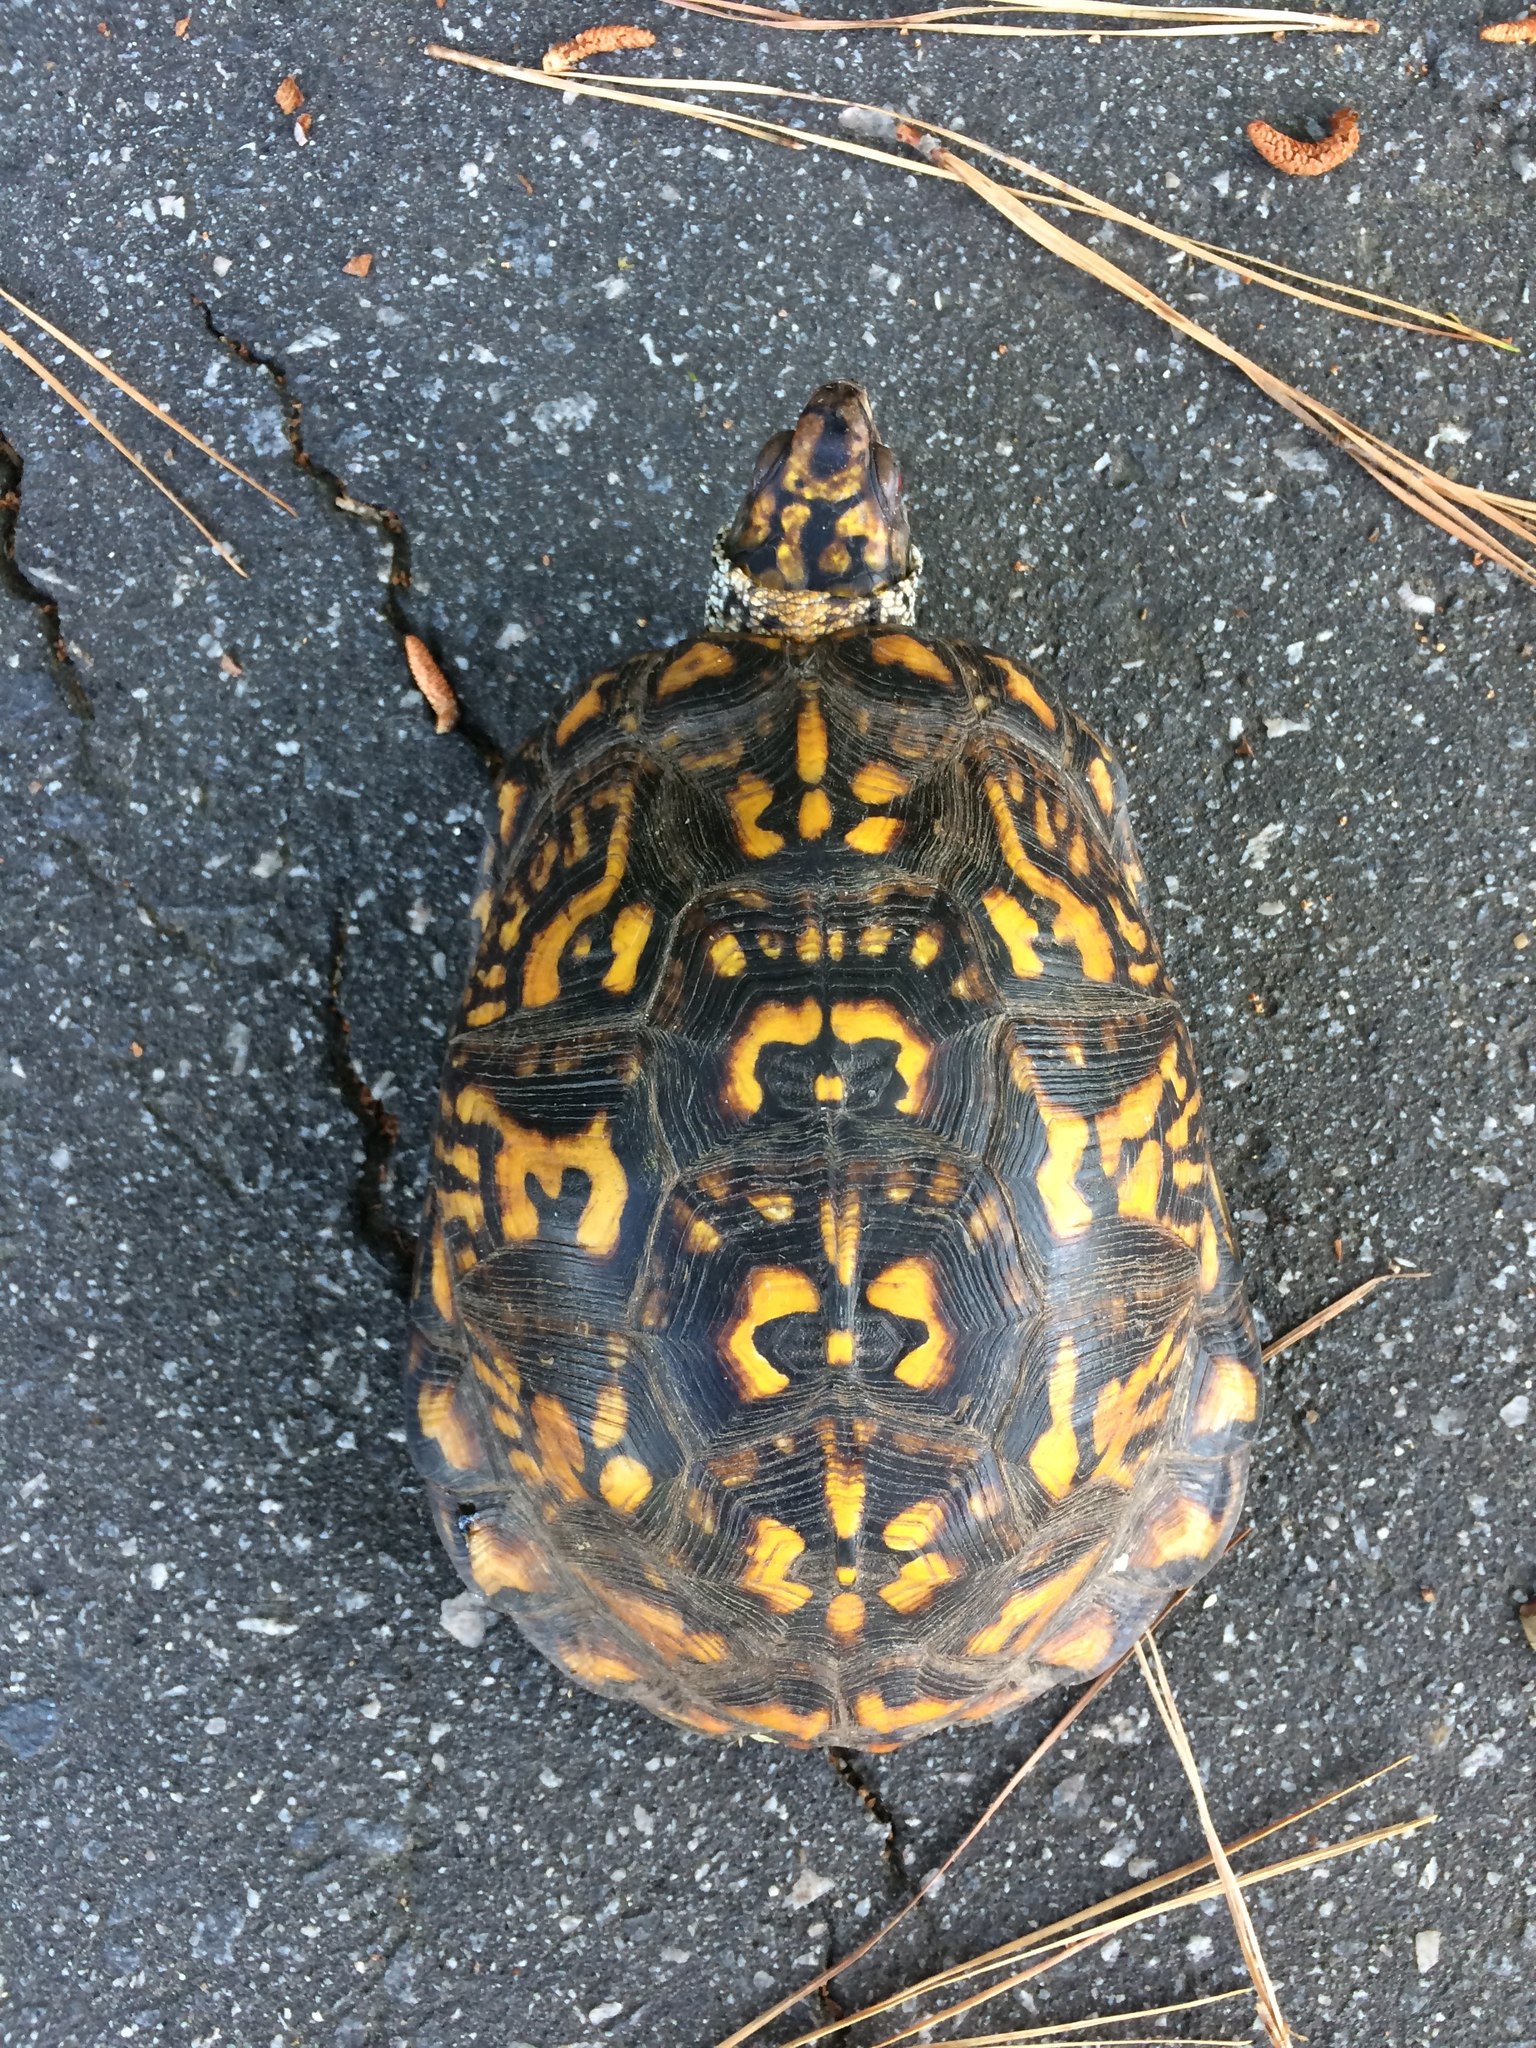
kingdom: Animalia
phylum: Chordata
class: Testudines
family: Emydidae
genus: Terrapene
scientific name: Terrapene carolina
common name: Common box turtle
